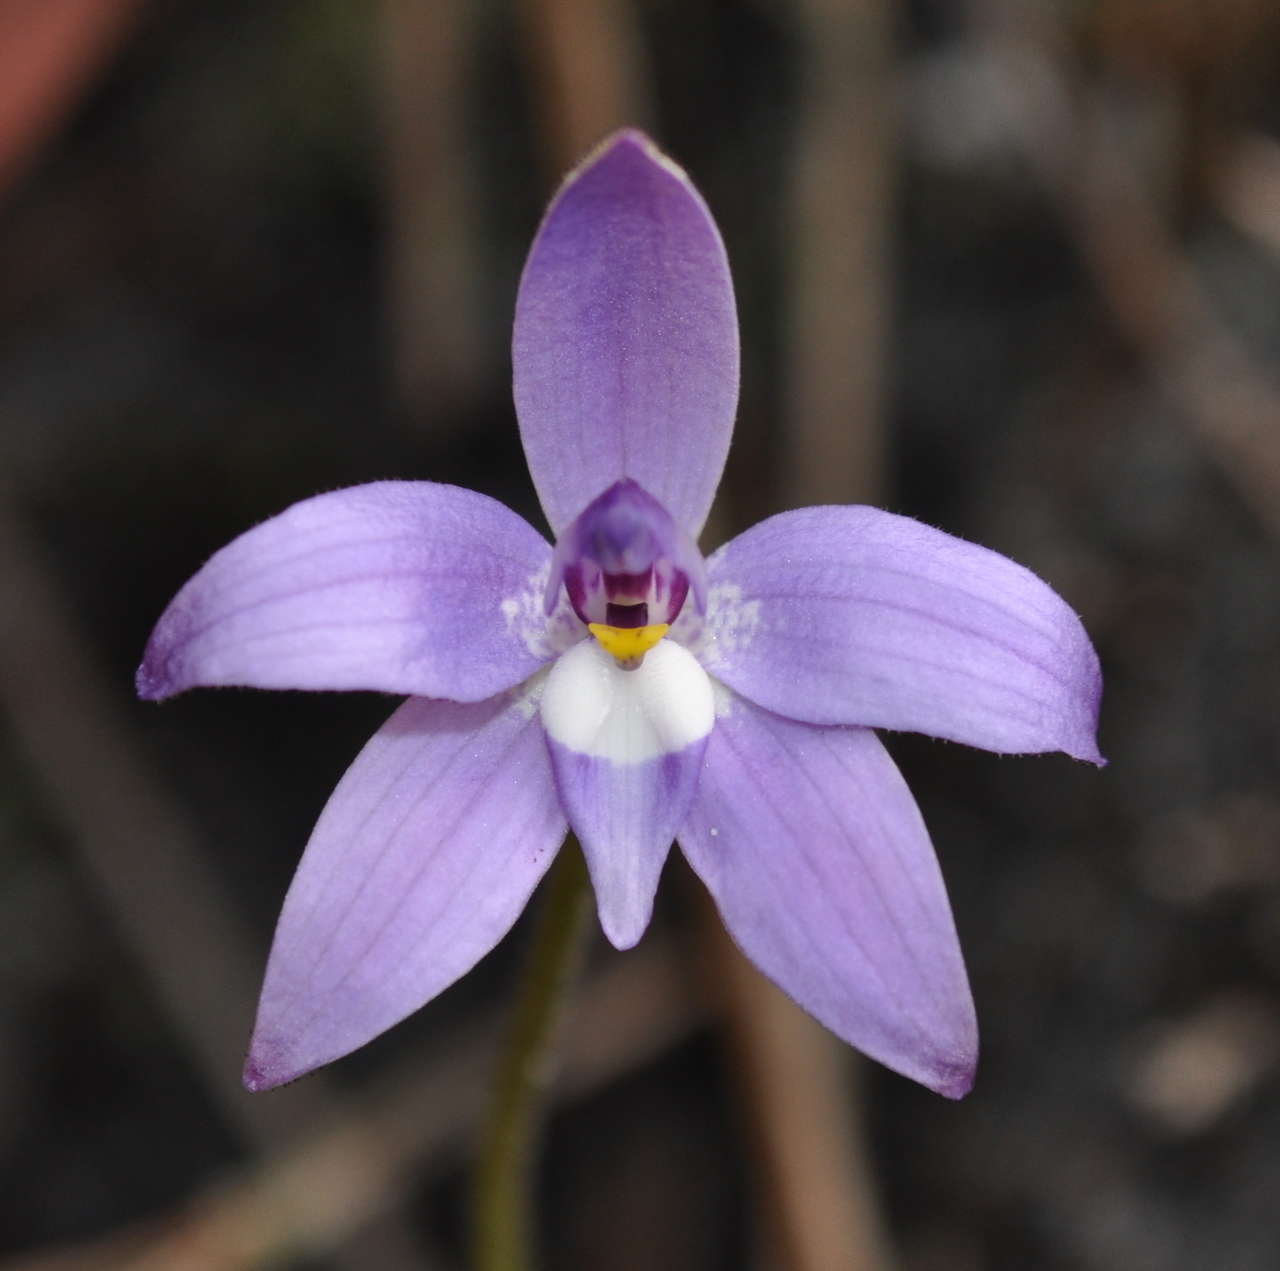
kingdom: Plantae
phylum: Tracheophyta
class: Liliopsida
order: Asparagales
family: Orchidaceae
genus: Caladenia
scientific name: Caladenia major
